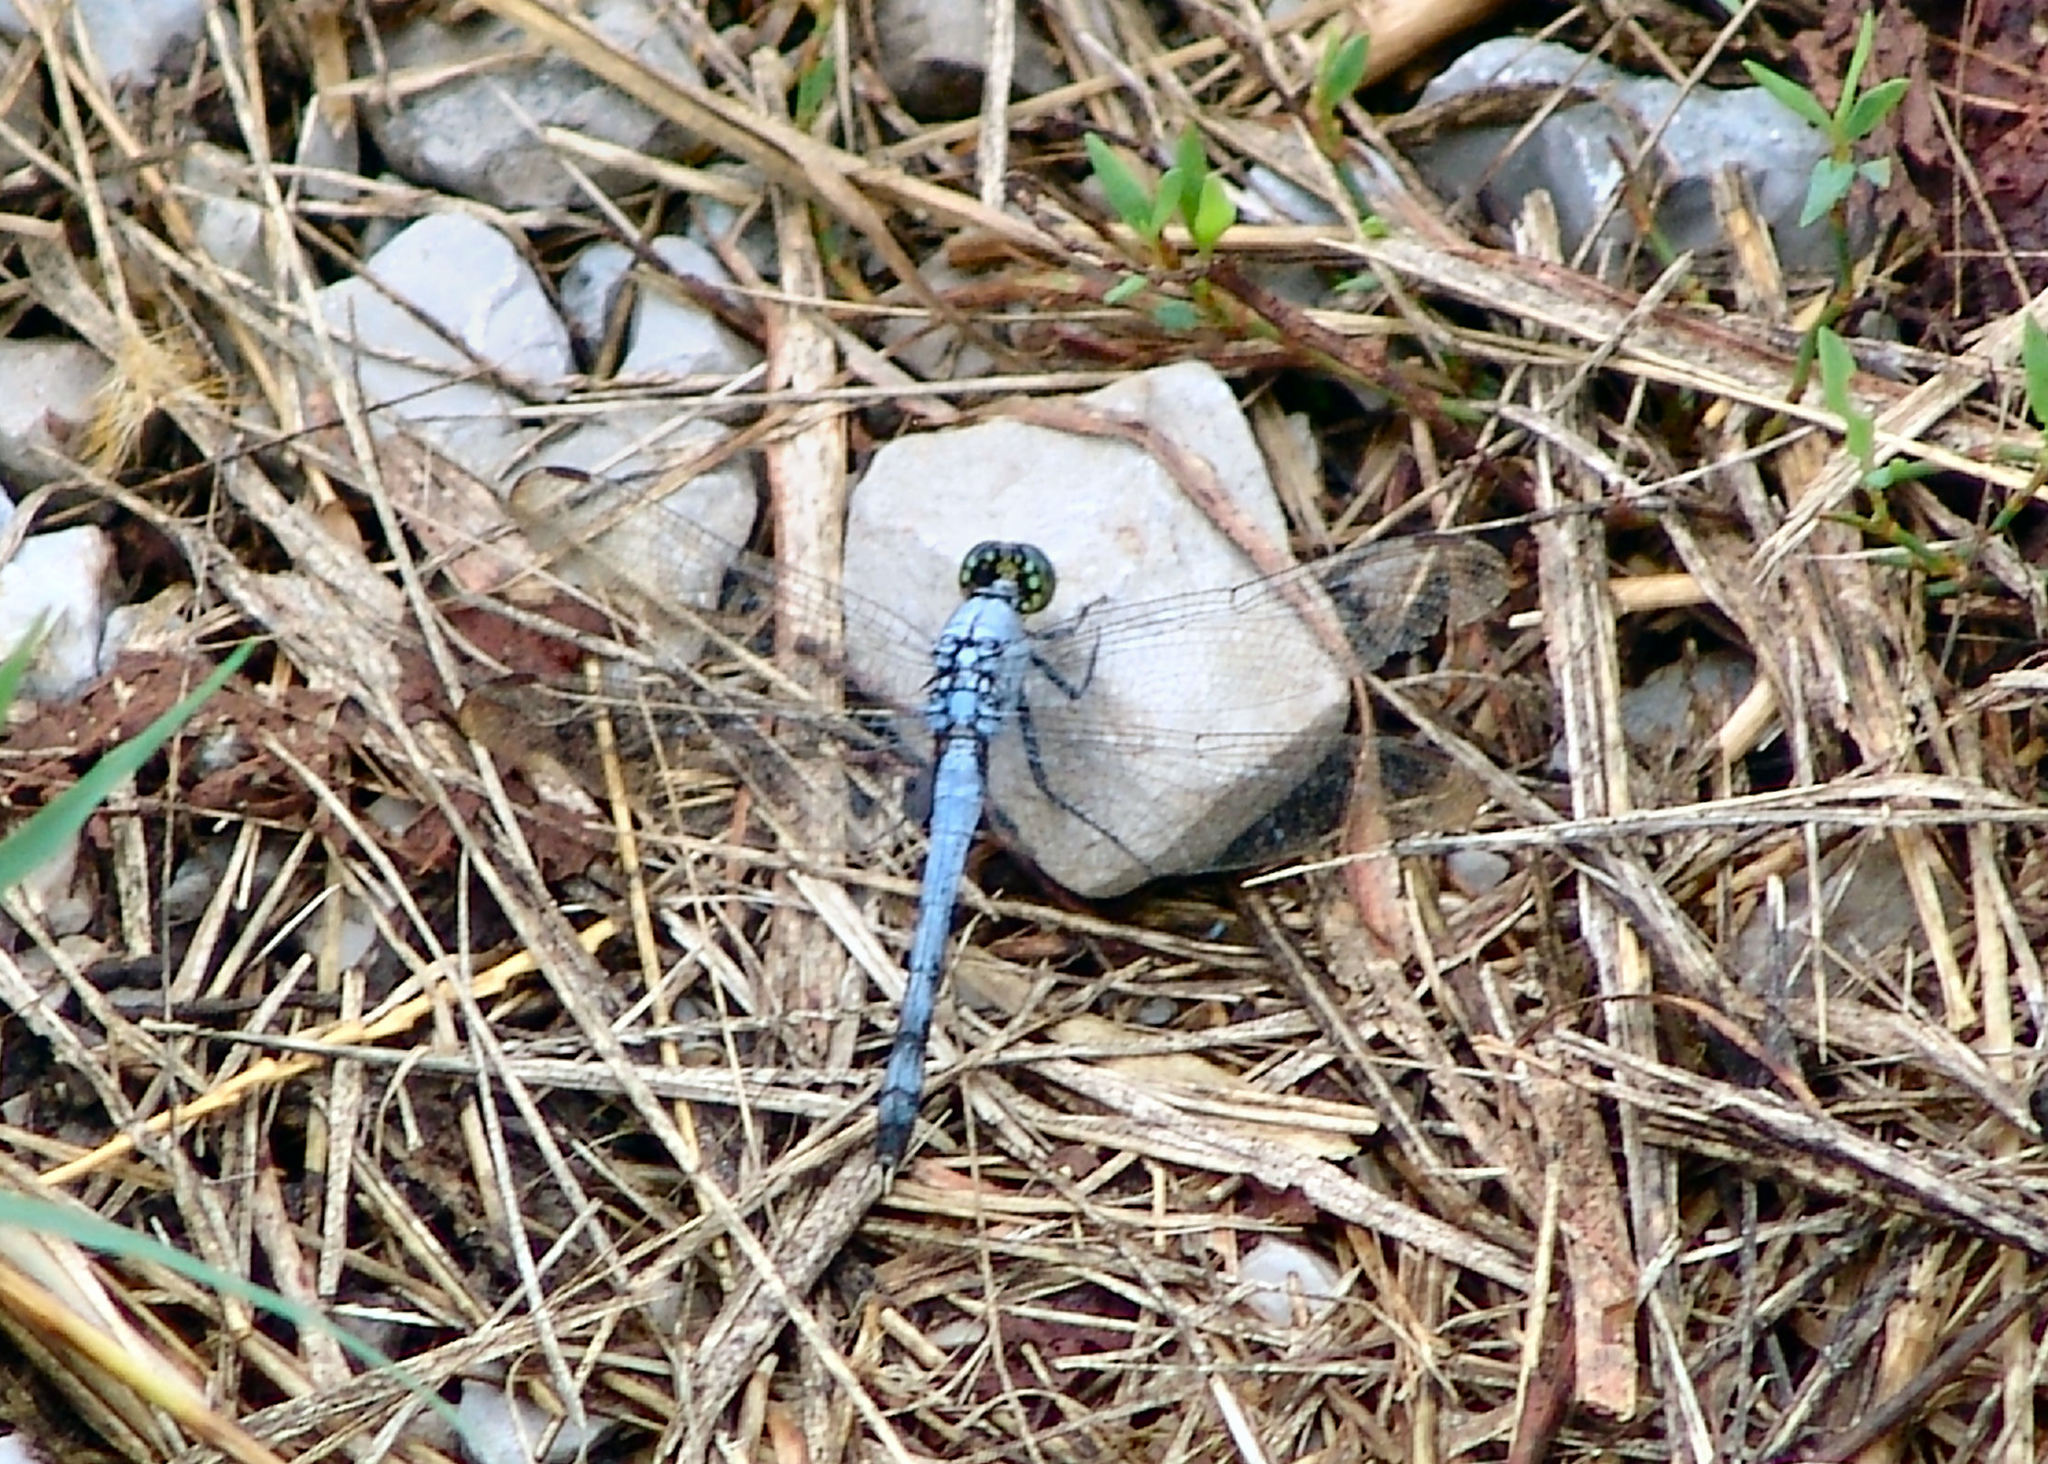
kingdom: Animalia
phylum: Arthropoda
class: Insecta
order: Odonata
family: Libellulidae
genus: Erythemis
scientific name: Erythemis simplicicollis
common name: Eastern pondhawk
